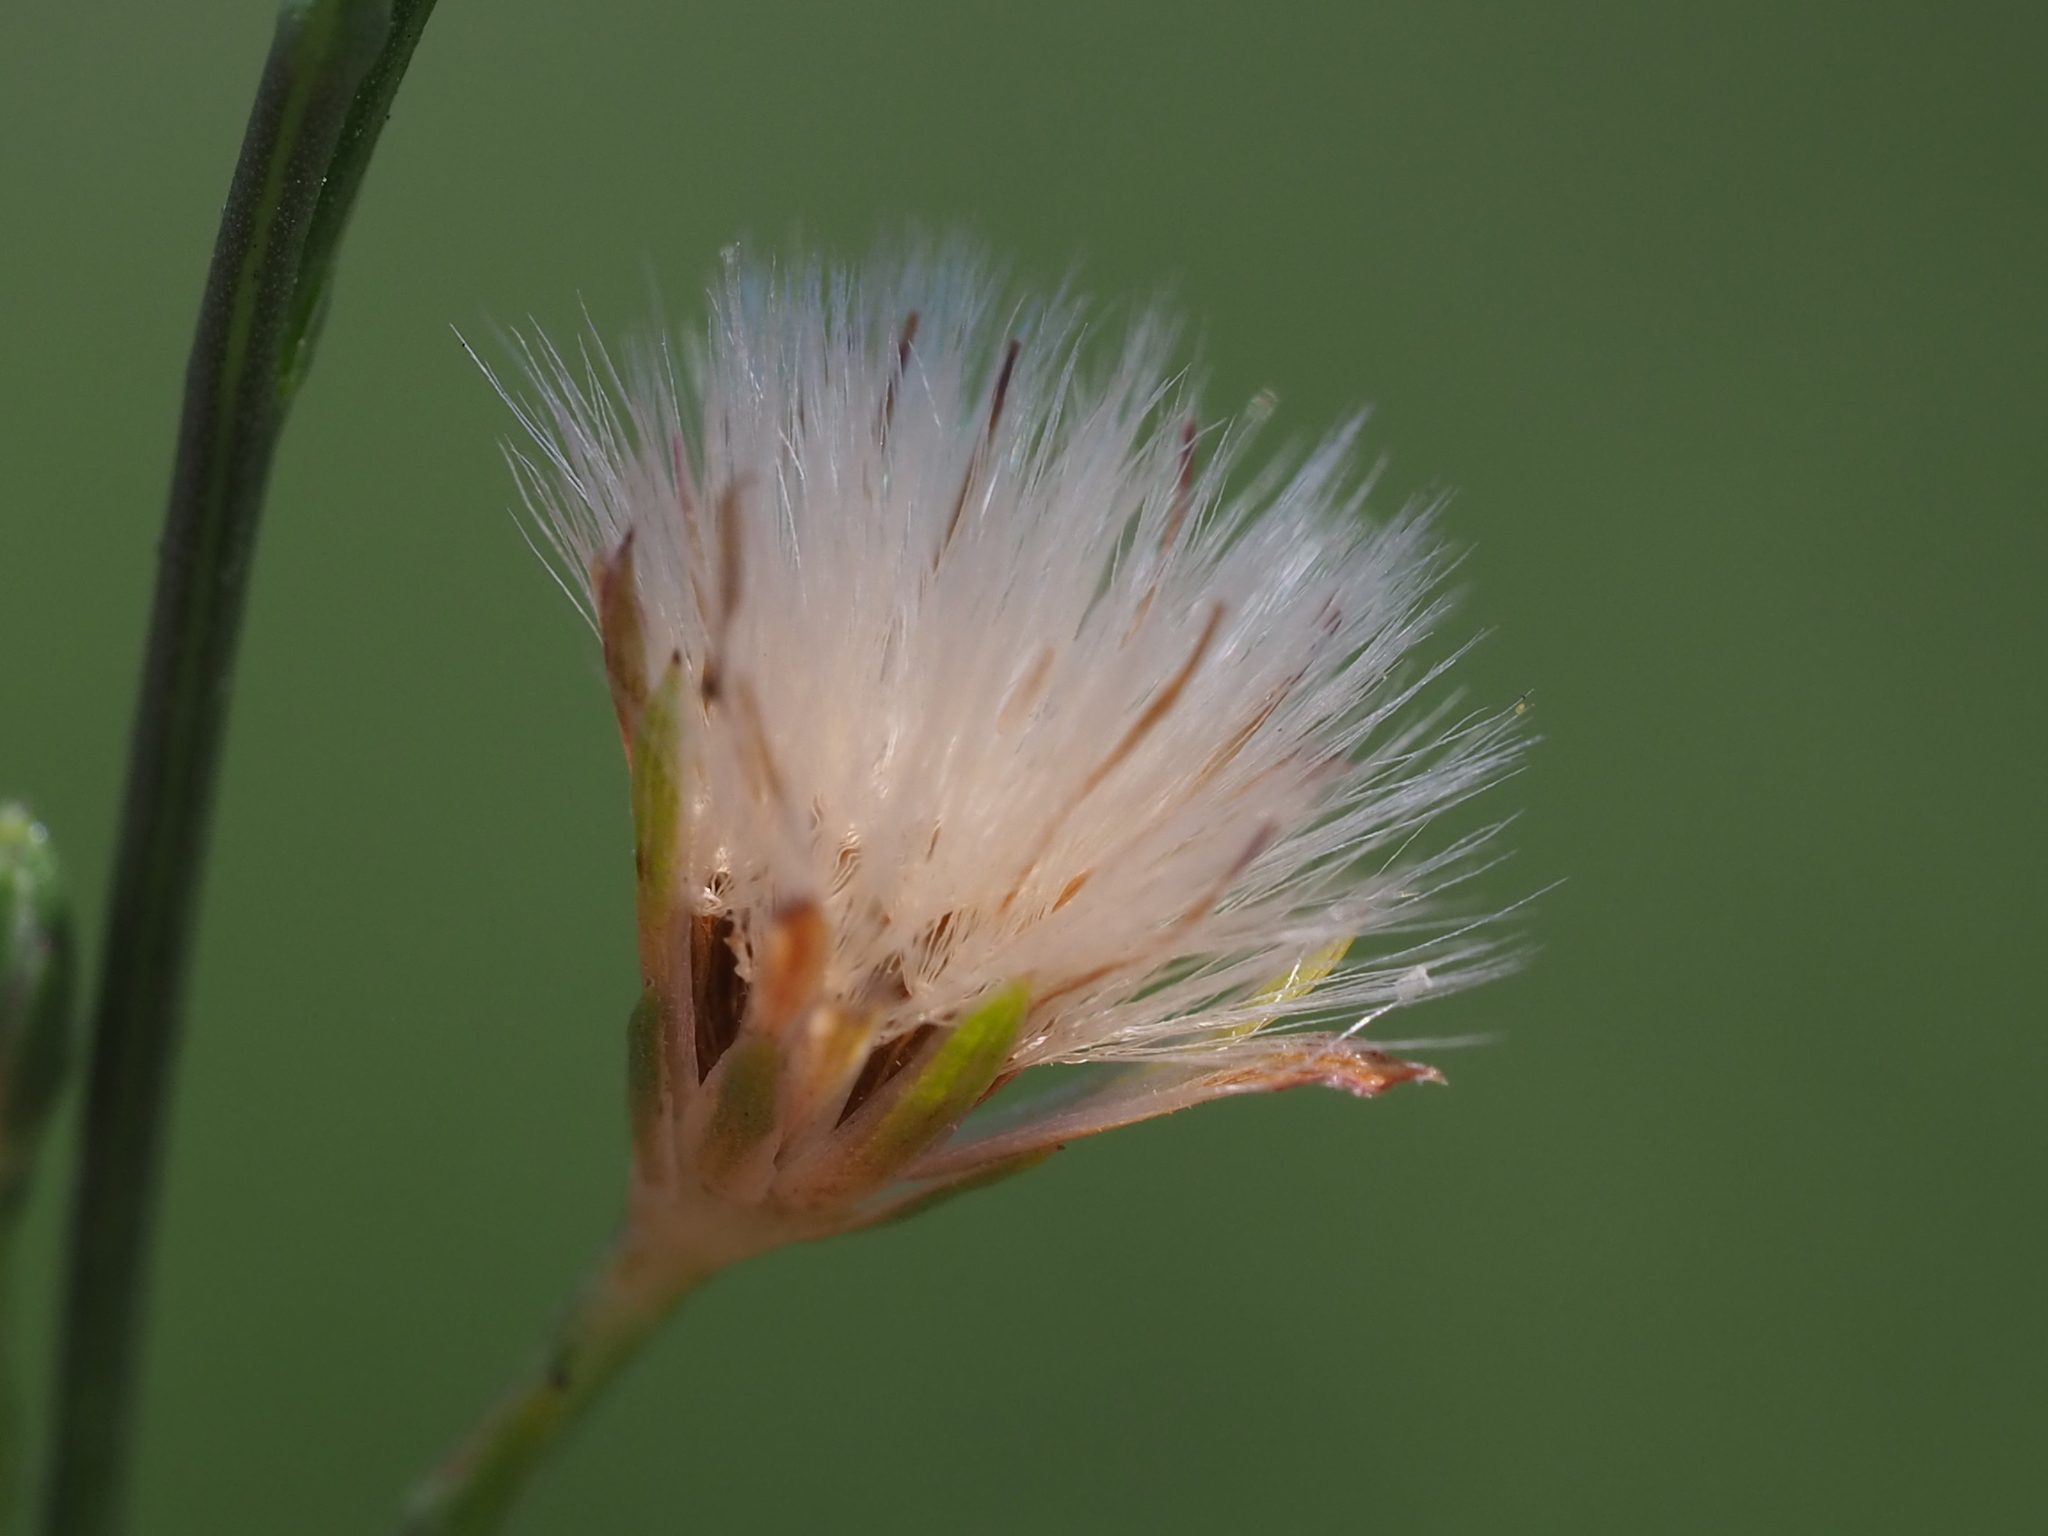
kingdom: Plantae
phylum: Tracheophyta
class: Magnoliopsida
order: Asterales
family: Asteraceae
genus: Symphyotrichum
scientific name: Symphyotrichum subulatum
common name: Annual saltmarsh aster
